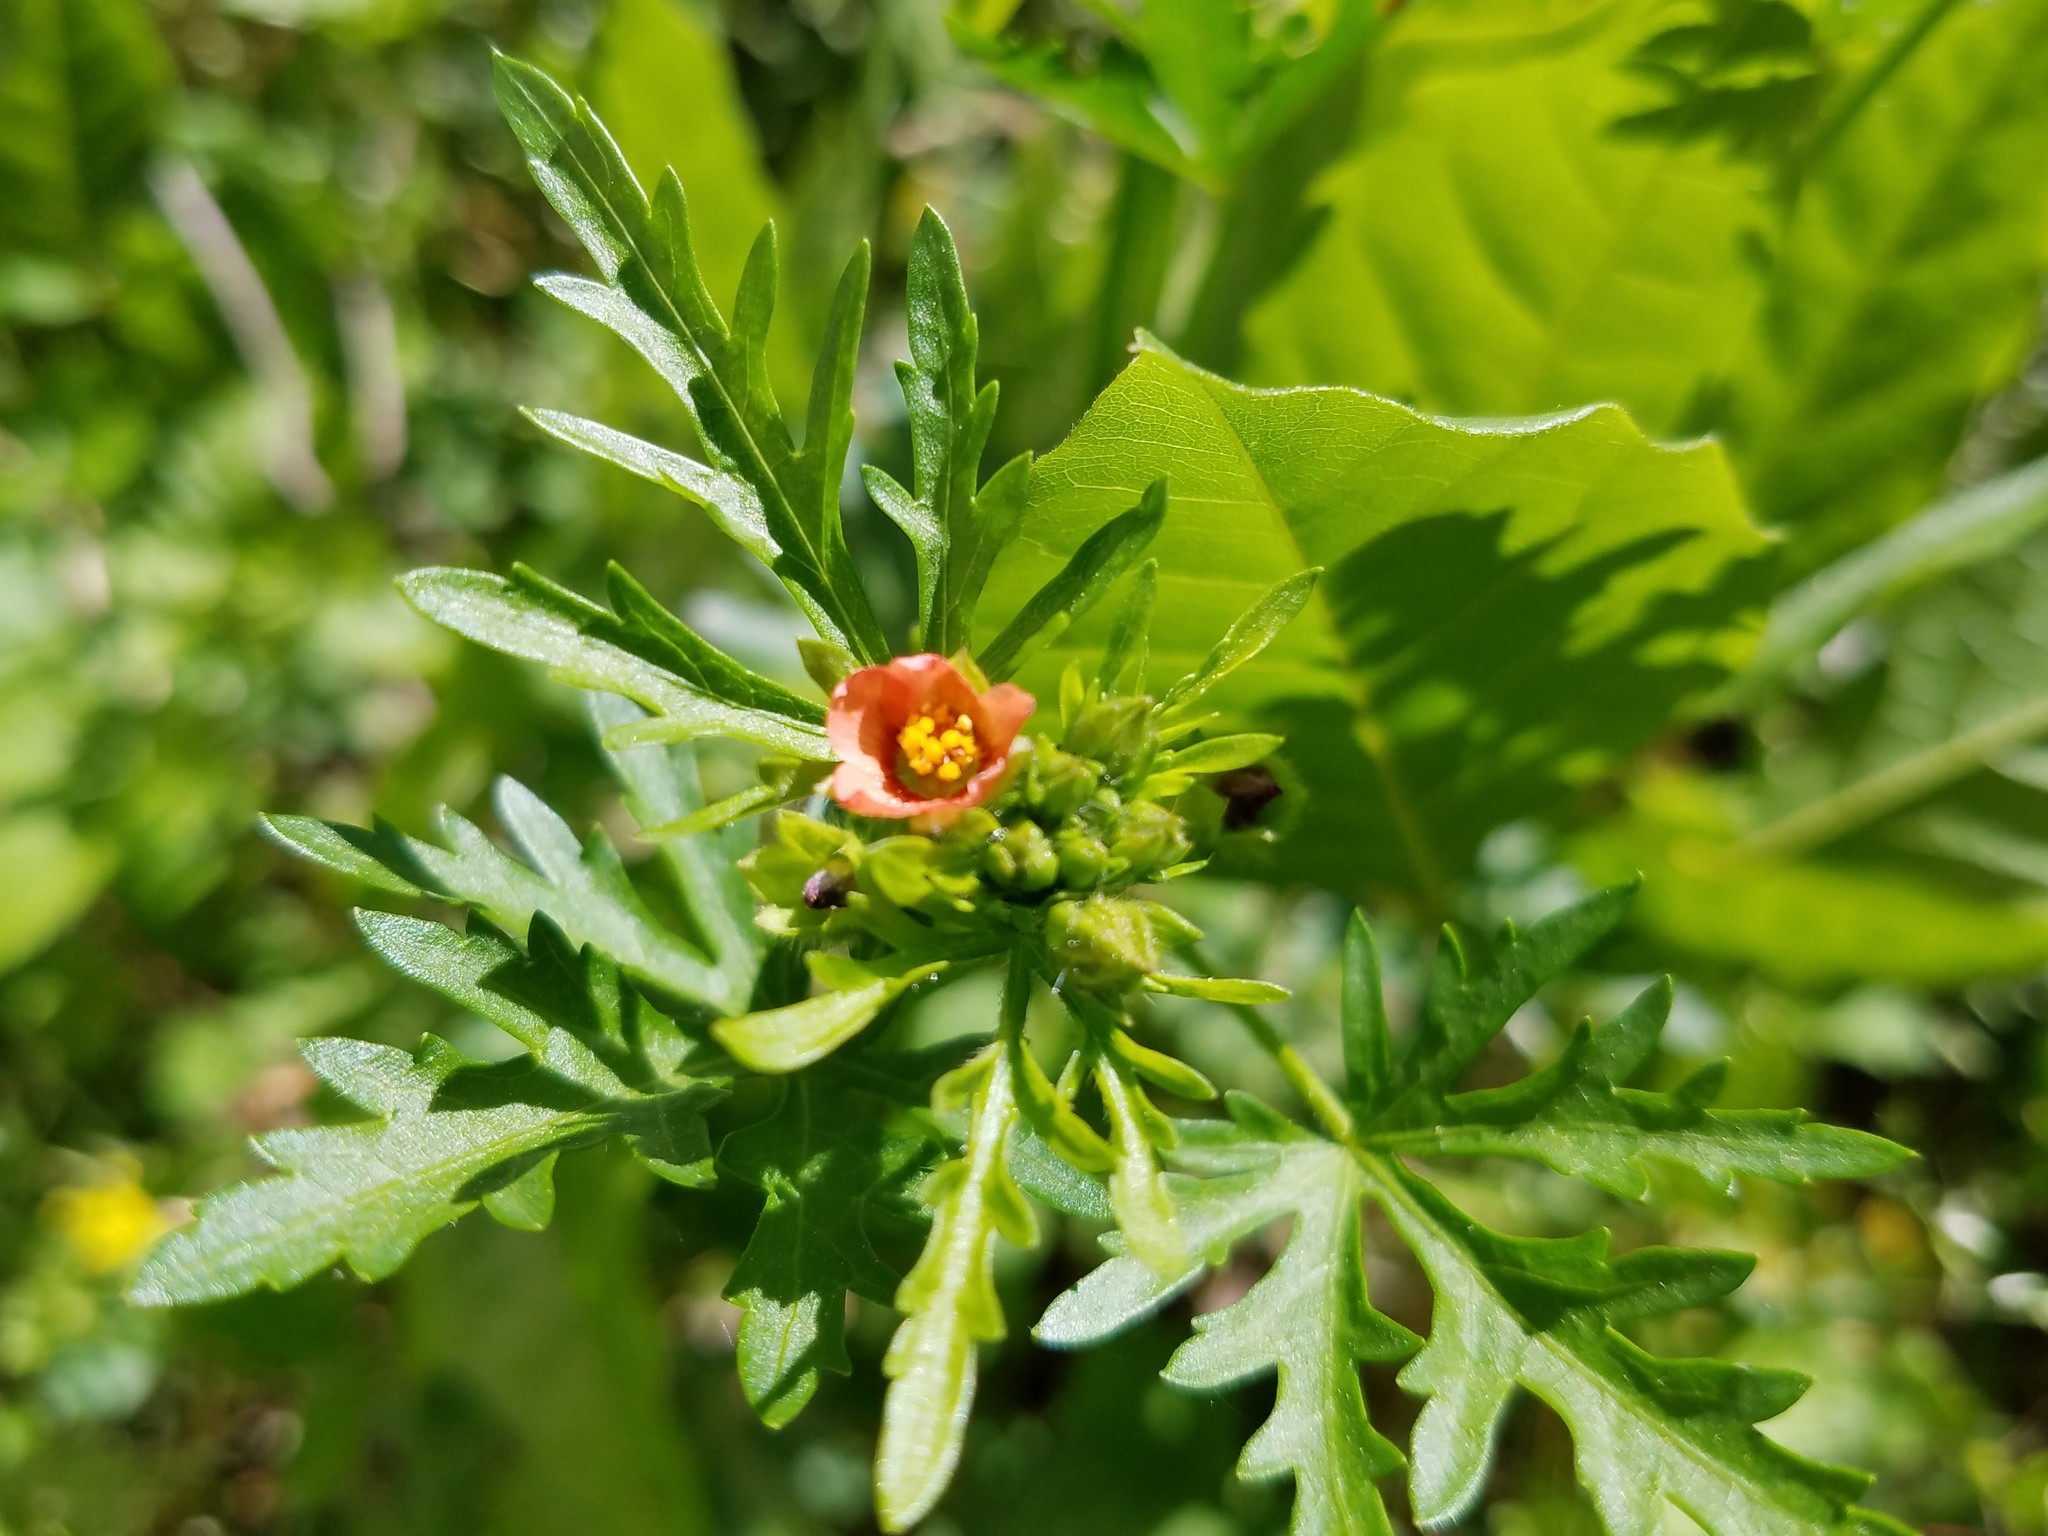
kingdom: Plantae
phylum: Tracheophyta
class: Magnoliopsida
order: Malvales
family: Malvaceae
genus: Modiola
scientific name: Modiola caroliniana
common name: Carolina bristlemallow
